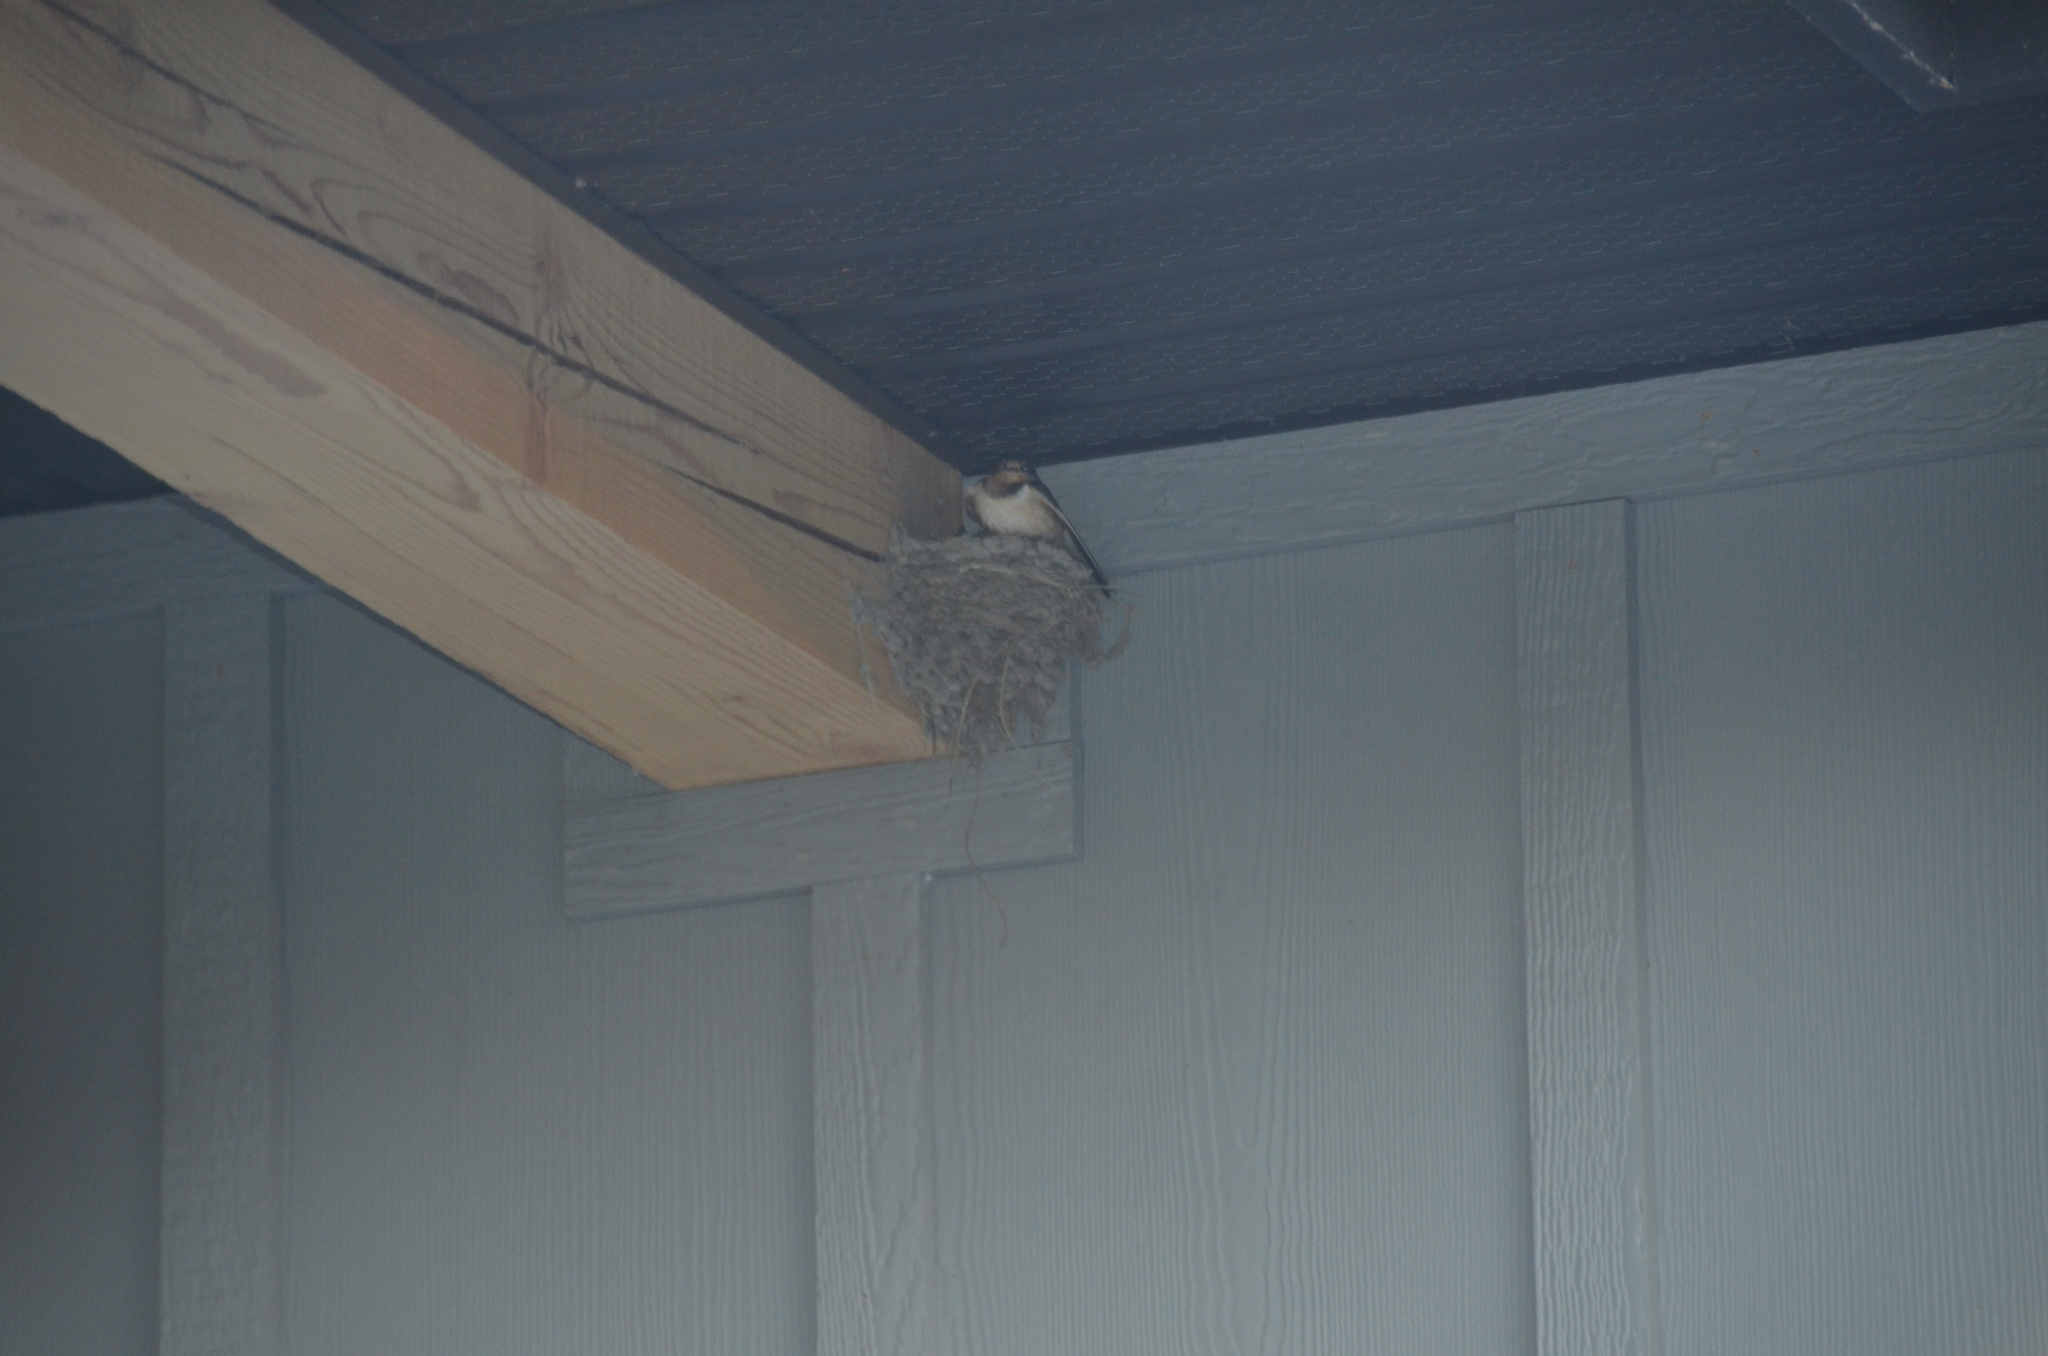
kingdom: Animalia
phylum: Chordata
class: Aves
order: Passeriformes
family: Hirundinidae
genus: Hirundo
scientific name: Hirundo rustica
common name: Barn swallow
